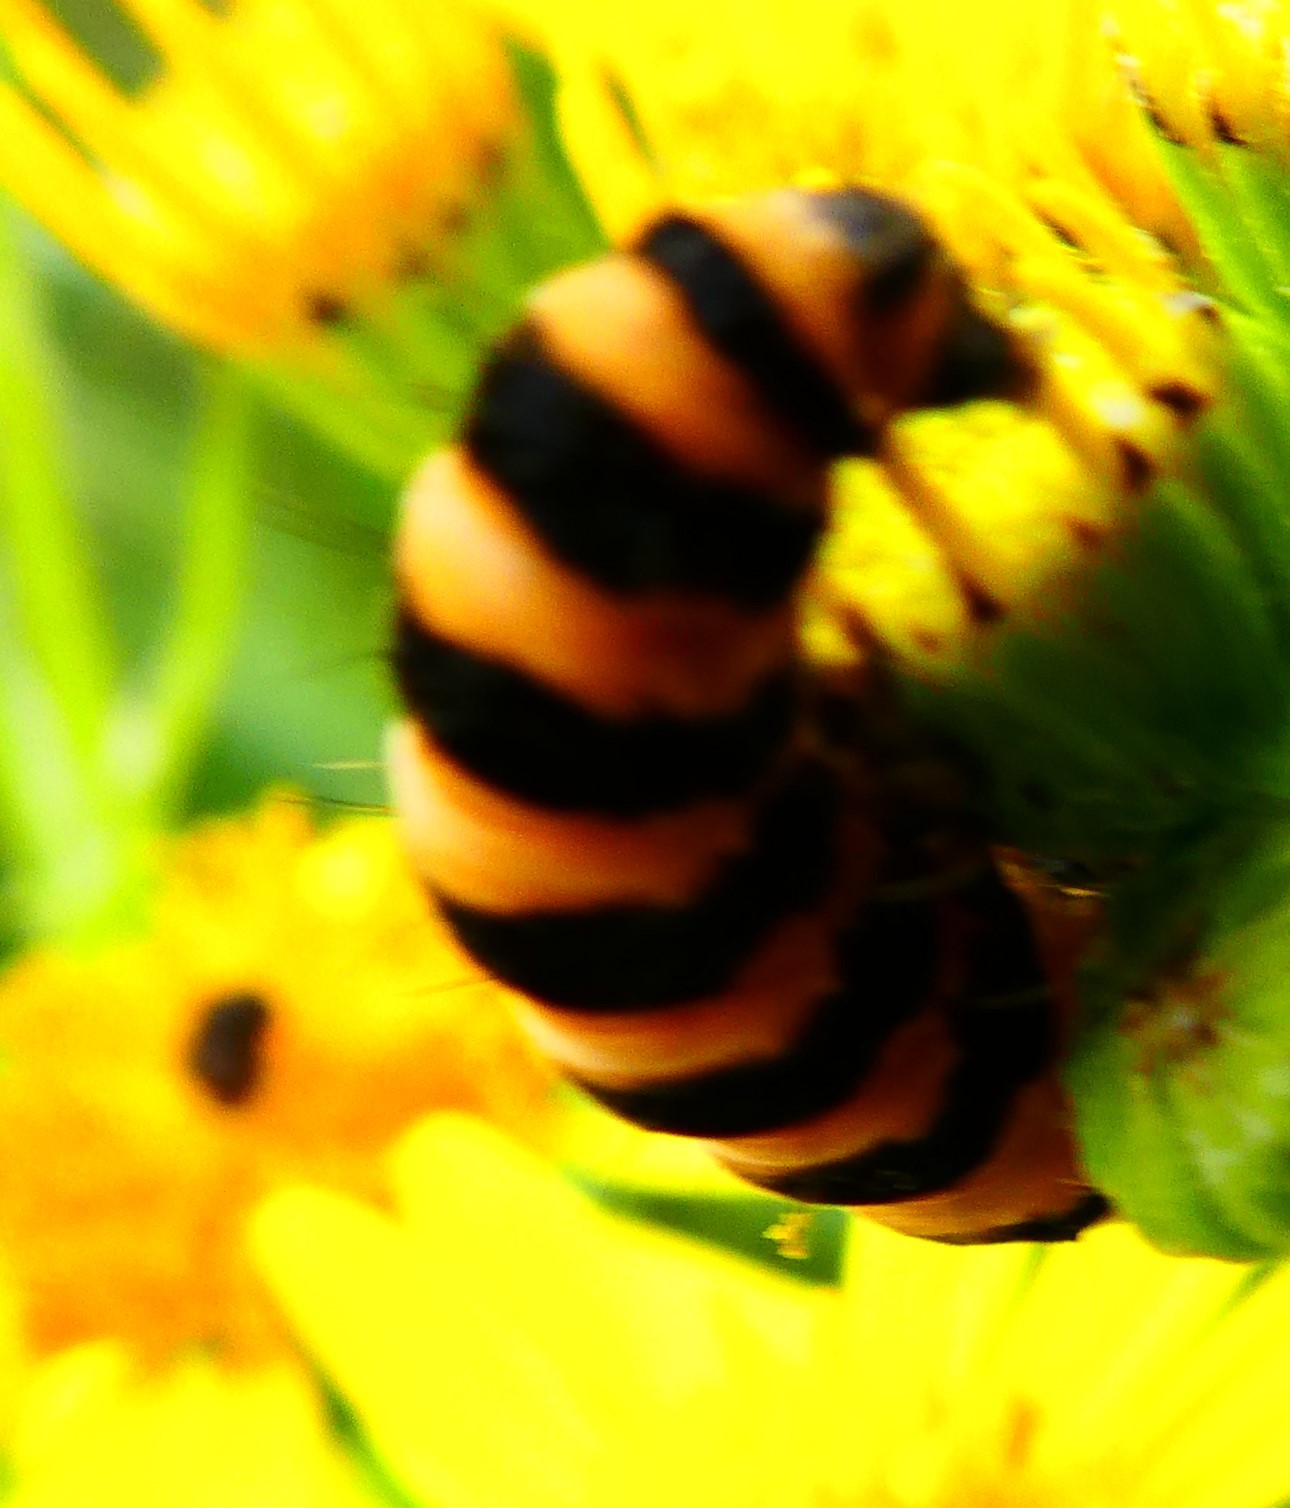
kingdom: Animalia
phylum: Arthropoda
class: Insecta
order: Lepidoptera
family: Erebidae
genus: Tyria
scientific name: Tyria jacobaeae
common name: Cinnabar
